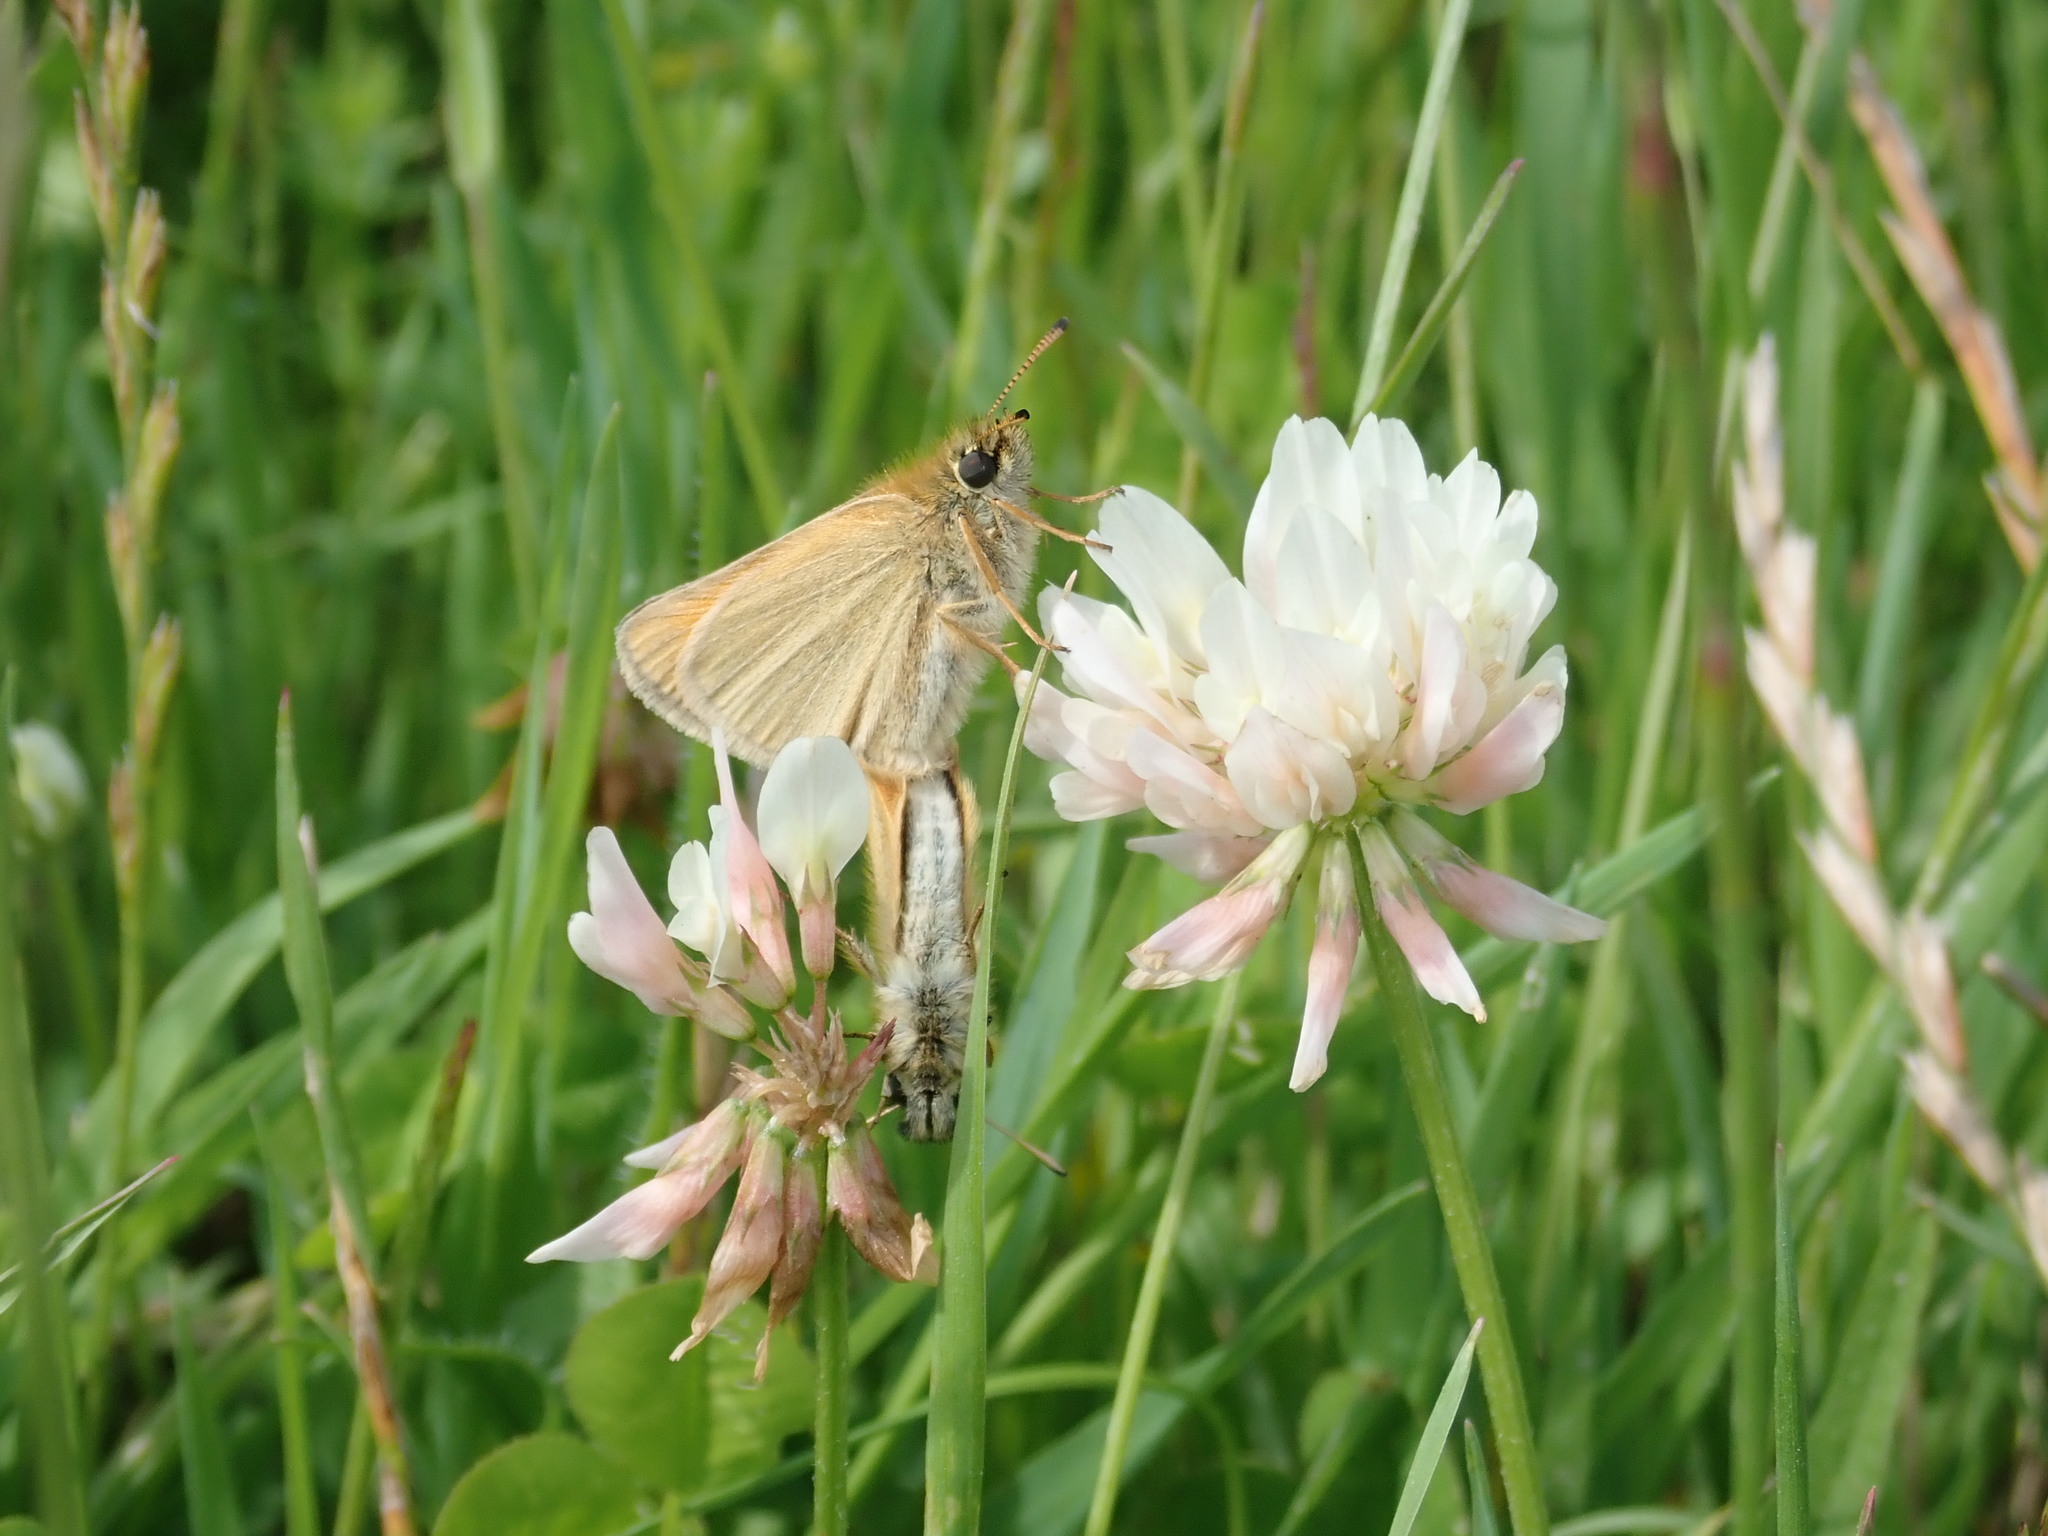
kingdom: Animalia
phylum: Arthropoda
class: Insecta
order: Lepidoptera
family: Hesperiidae
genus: Thymelicus
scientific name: Thymelicus lineola
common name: Essex skipper
